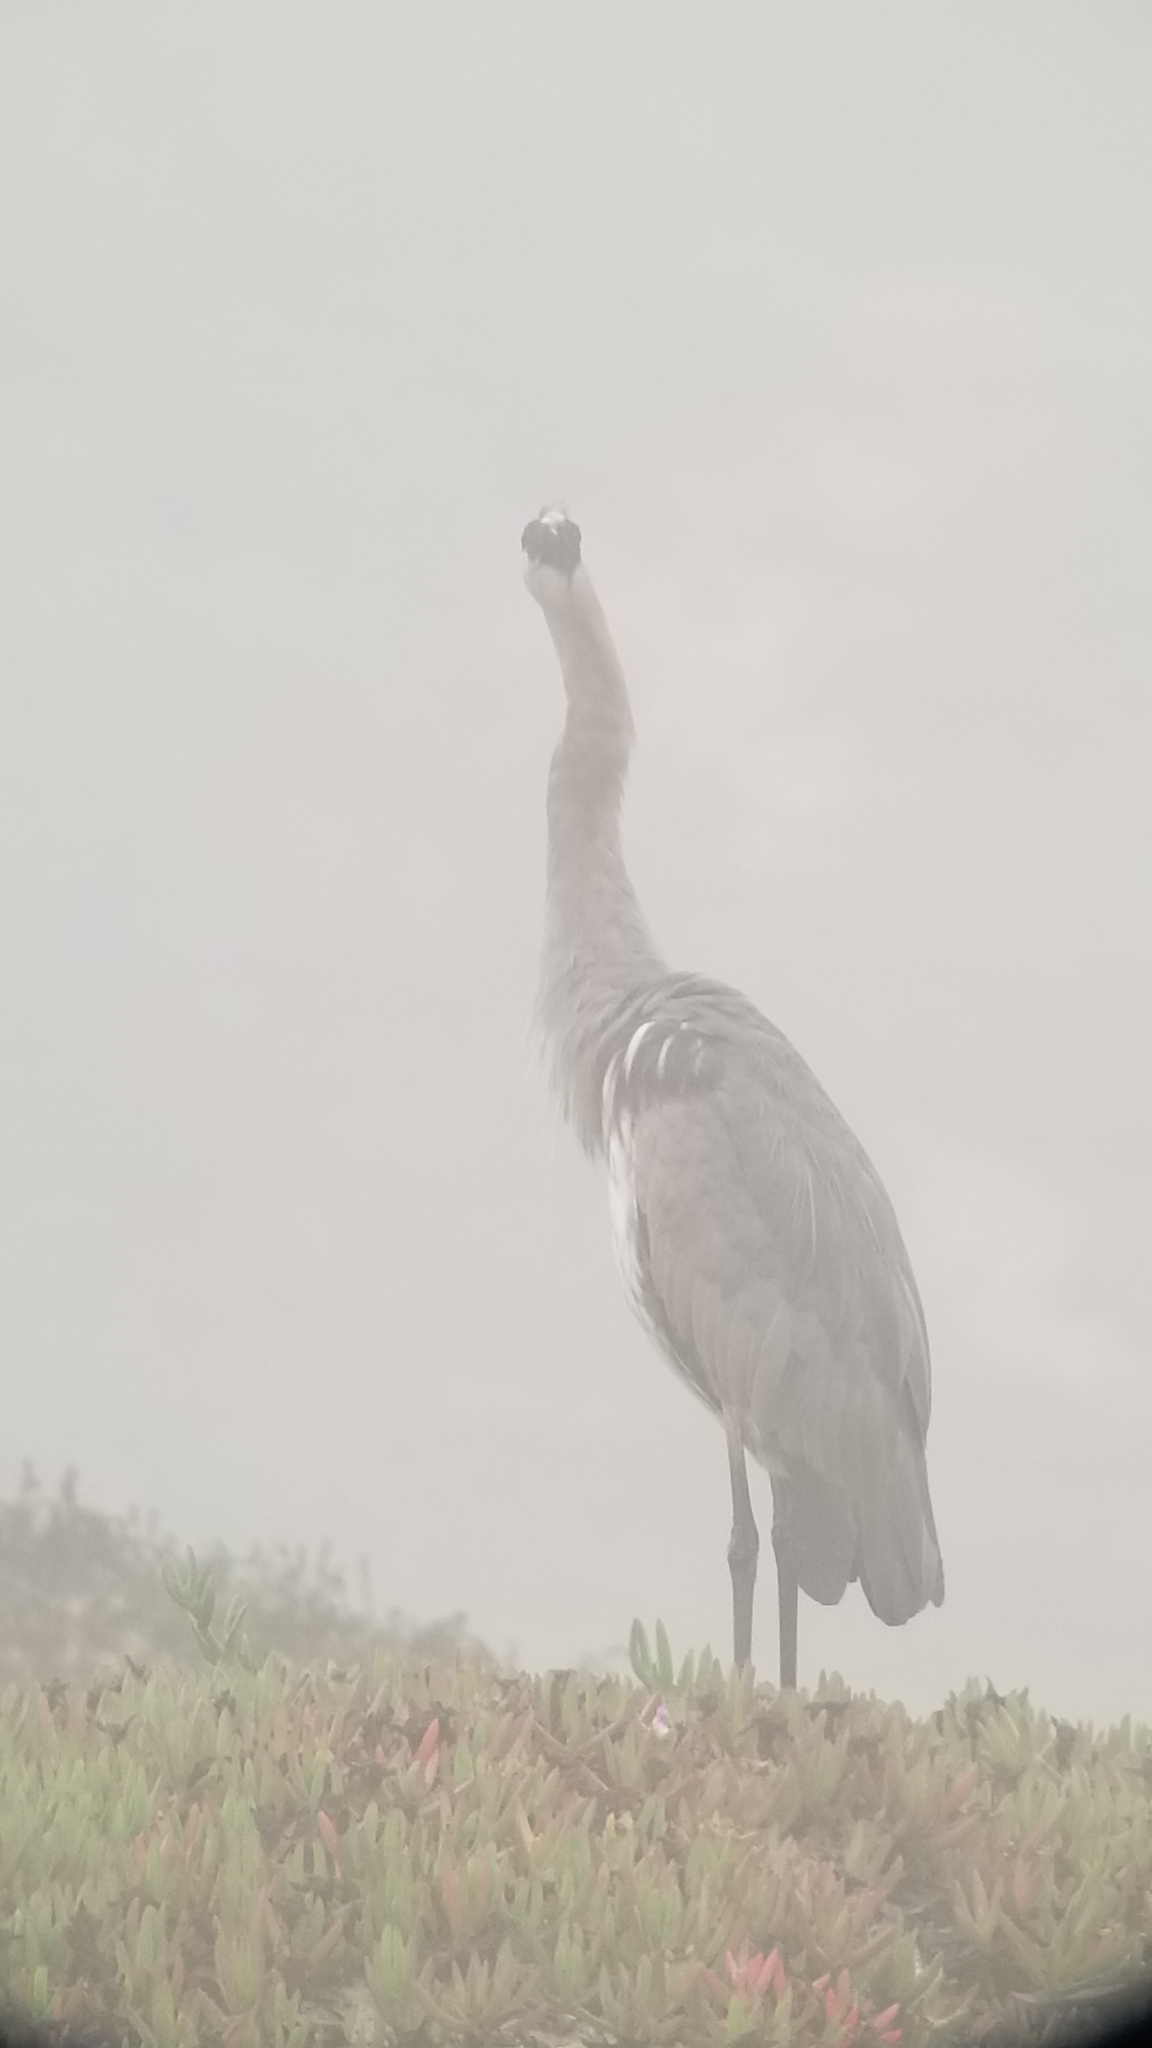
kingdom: Animalia
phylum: Chordata
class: Aves
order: Pelecaniformes
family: Ardeidae
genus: Ardea
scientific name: Ardea herodias
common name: Great blue heron
